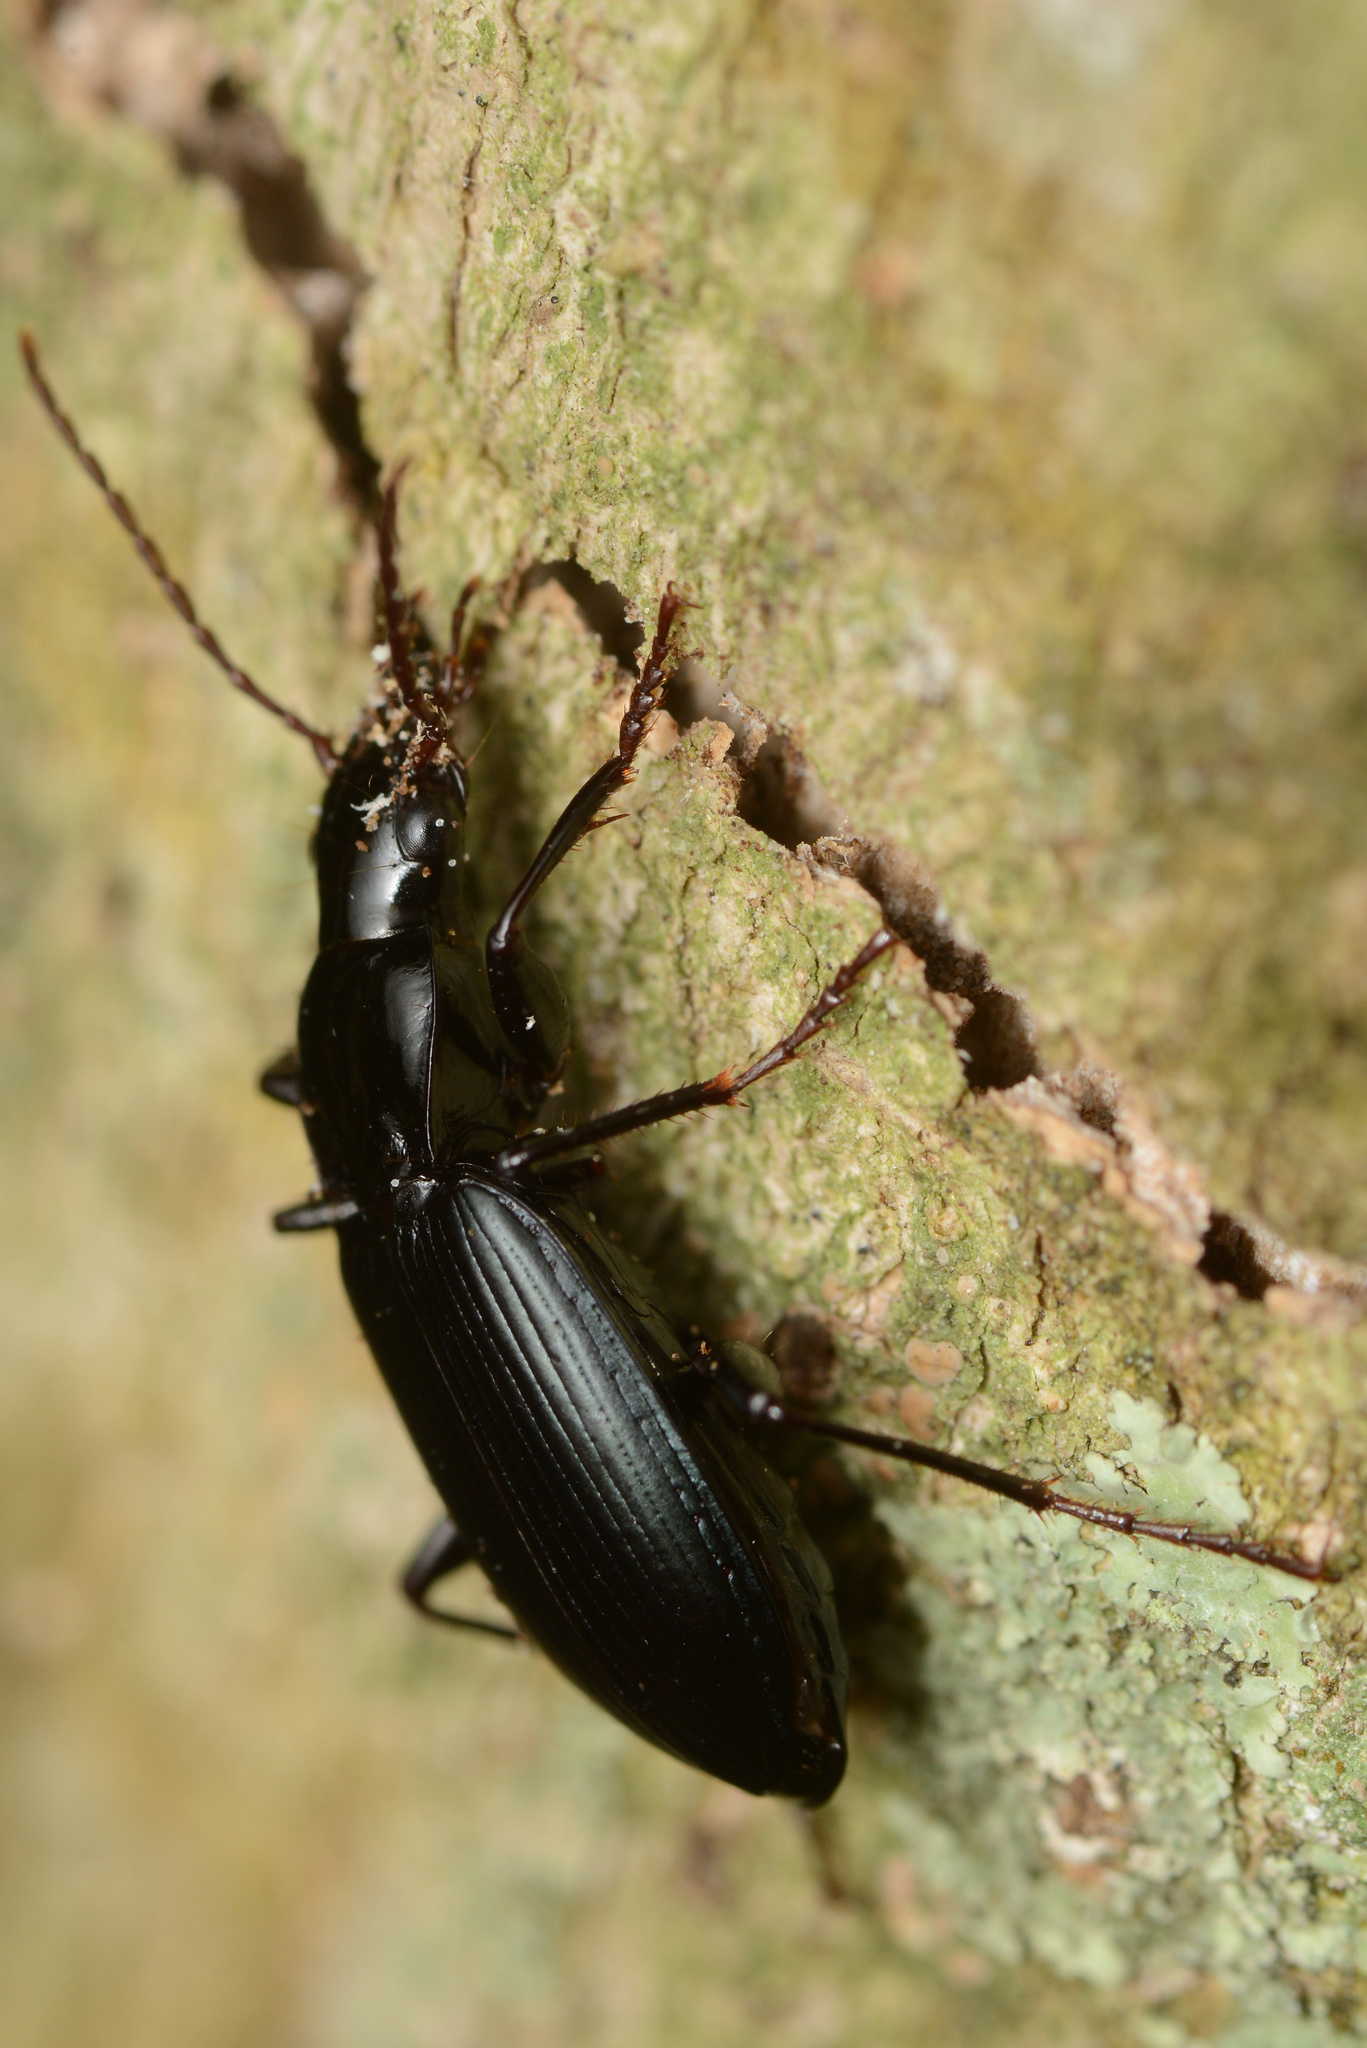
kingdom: Animalia
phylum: Arthropoda
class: Insecta
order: Coleoptera
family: Carabidae
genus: Laemostenus
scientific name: Laemostenus complanatus
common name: Cosmopolitan ground beetle
